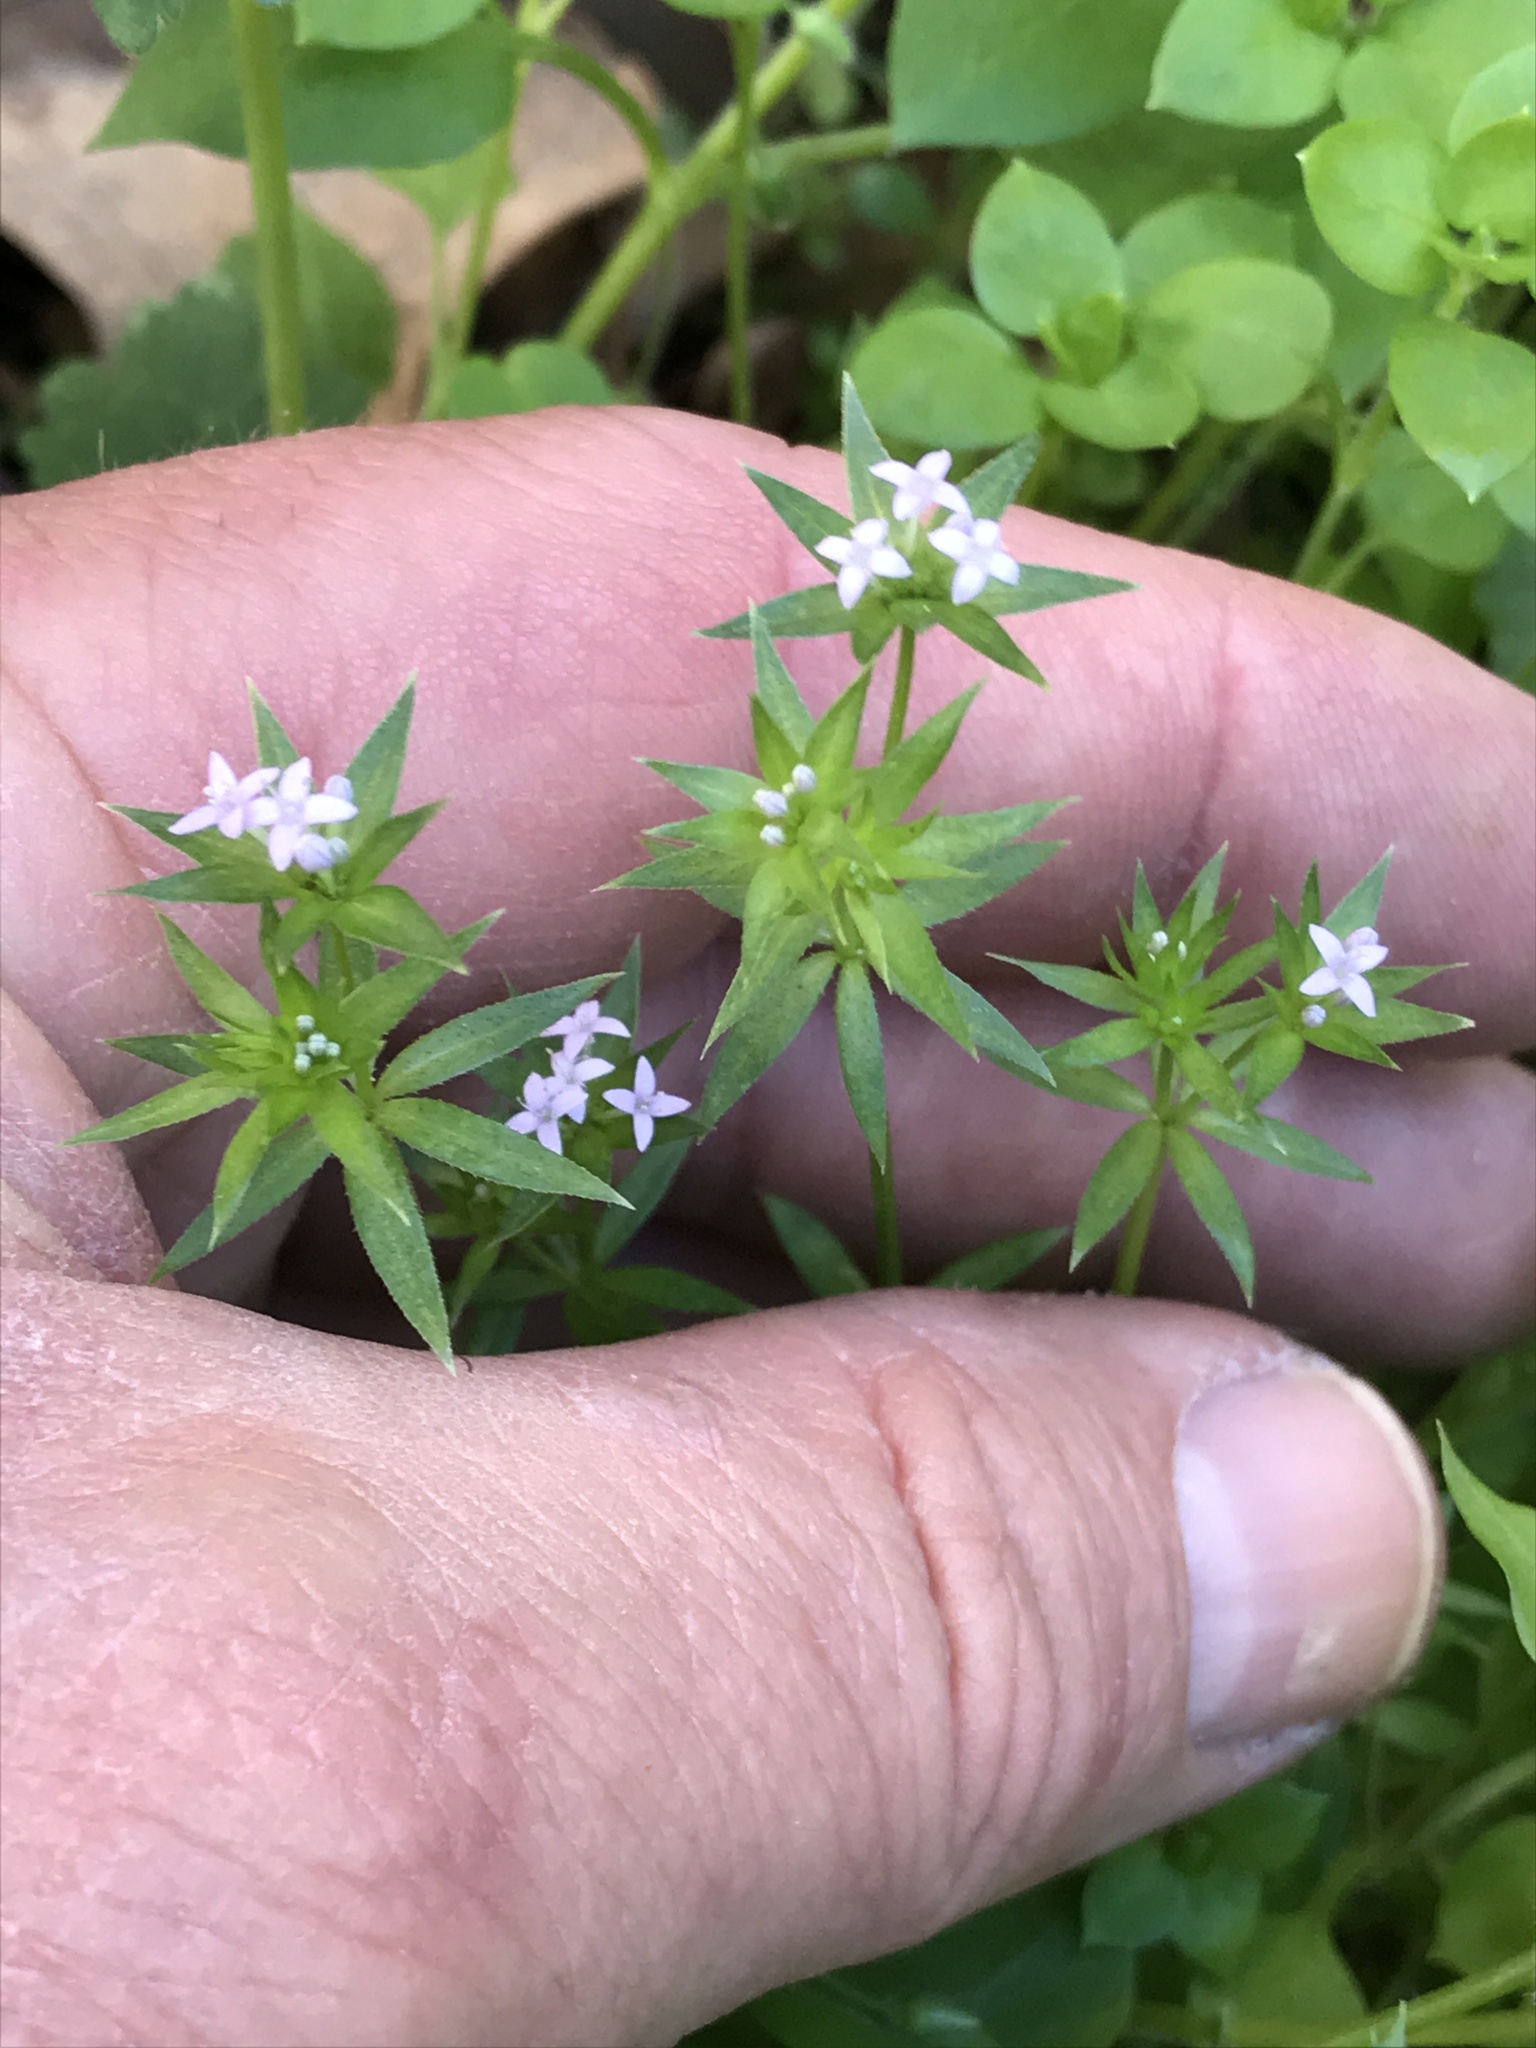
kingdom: Plantae
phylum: Tracheophyta
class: Magnoliopsida
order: Gentianales
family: Rubiaceae
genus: Sherardia
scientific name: Sherardia arvensis
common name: Field madder
